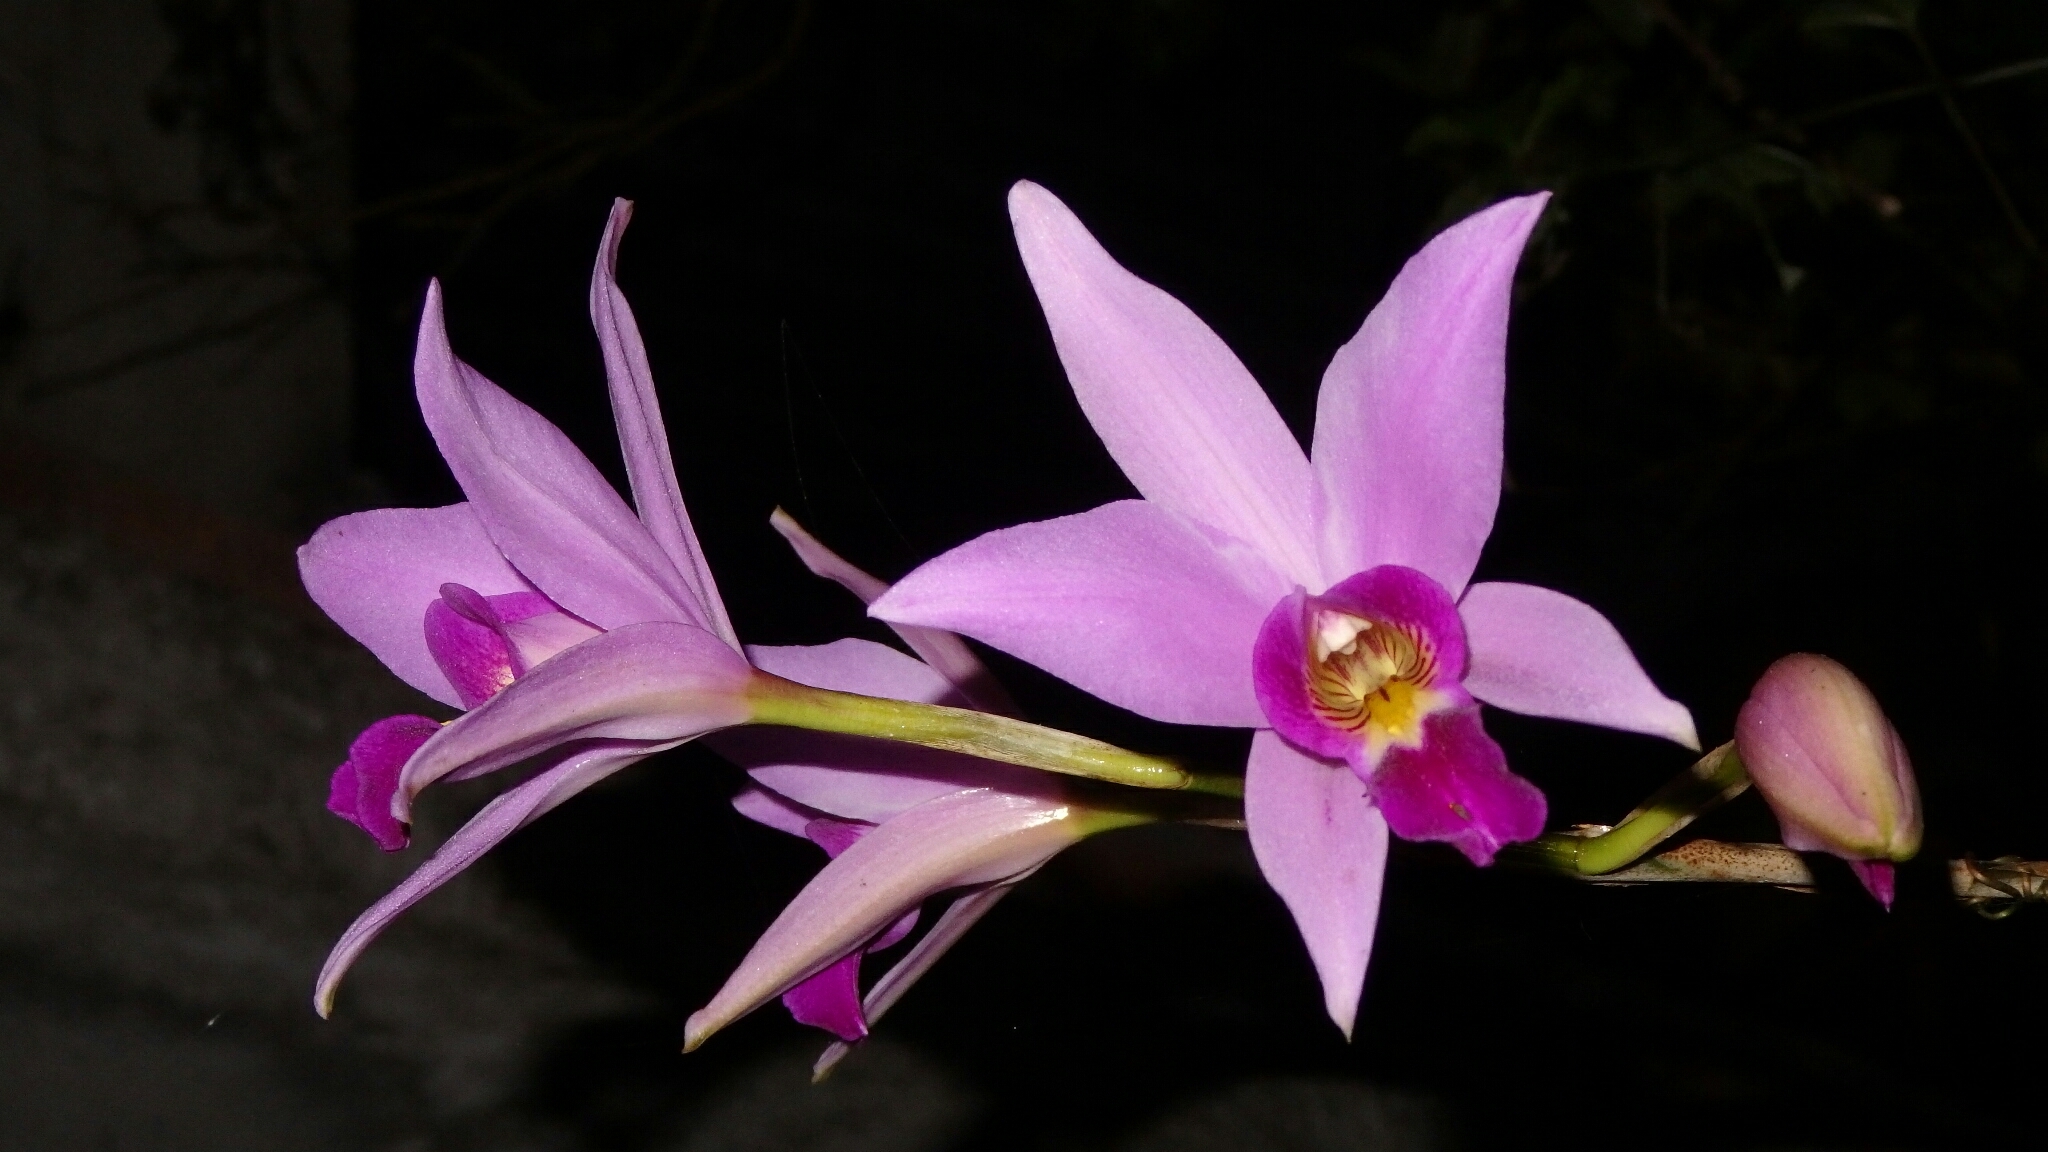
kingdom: Plantae
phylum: Tracheophyta
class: Liliopsida
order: Asparagales
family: Orchidaceae
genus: Laelia
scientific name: Laelia anceps
